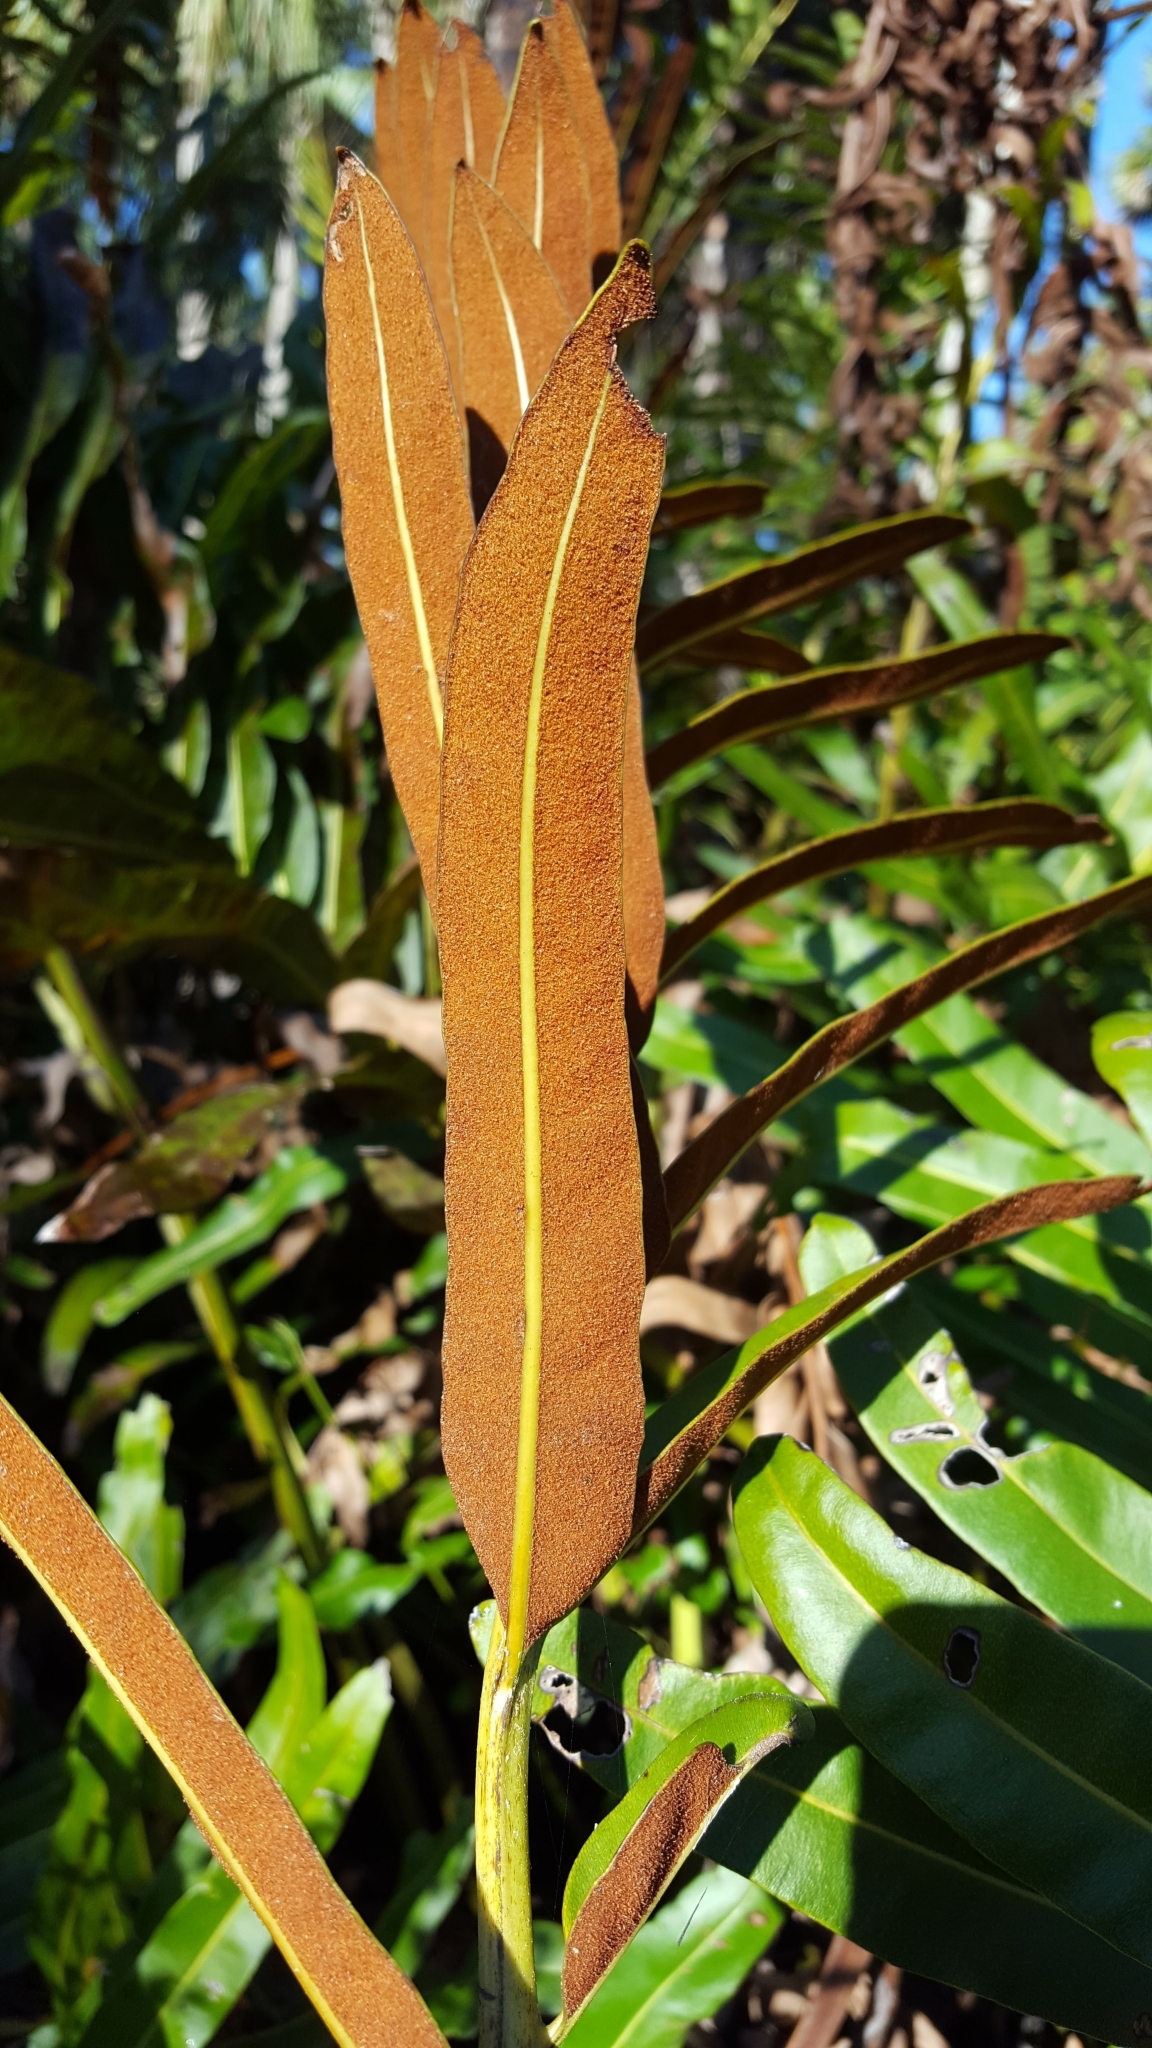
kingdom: Plantae
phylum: Tracheophyta
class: Polypodiopsida
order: Polypodiales
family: Pteridaceae
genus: Acrostichum
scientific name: Acrostichum danaeifolium
